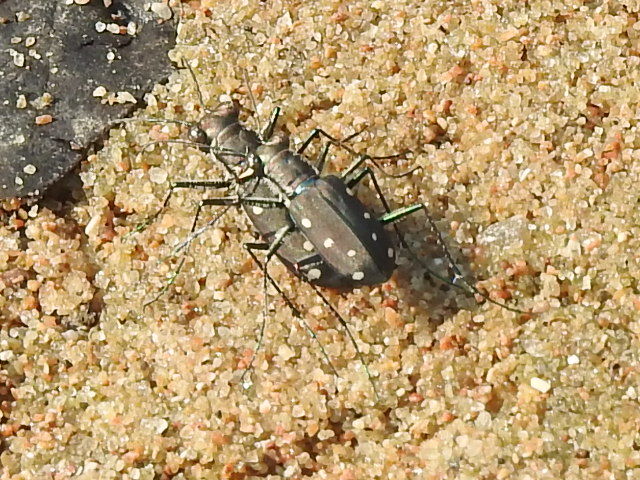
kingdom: Animalia
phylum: Arthropoda
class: Insecta
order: Coleoptera
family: Carabidae
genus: Cicindela
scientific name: Cicindela ocellata
